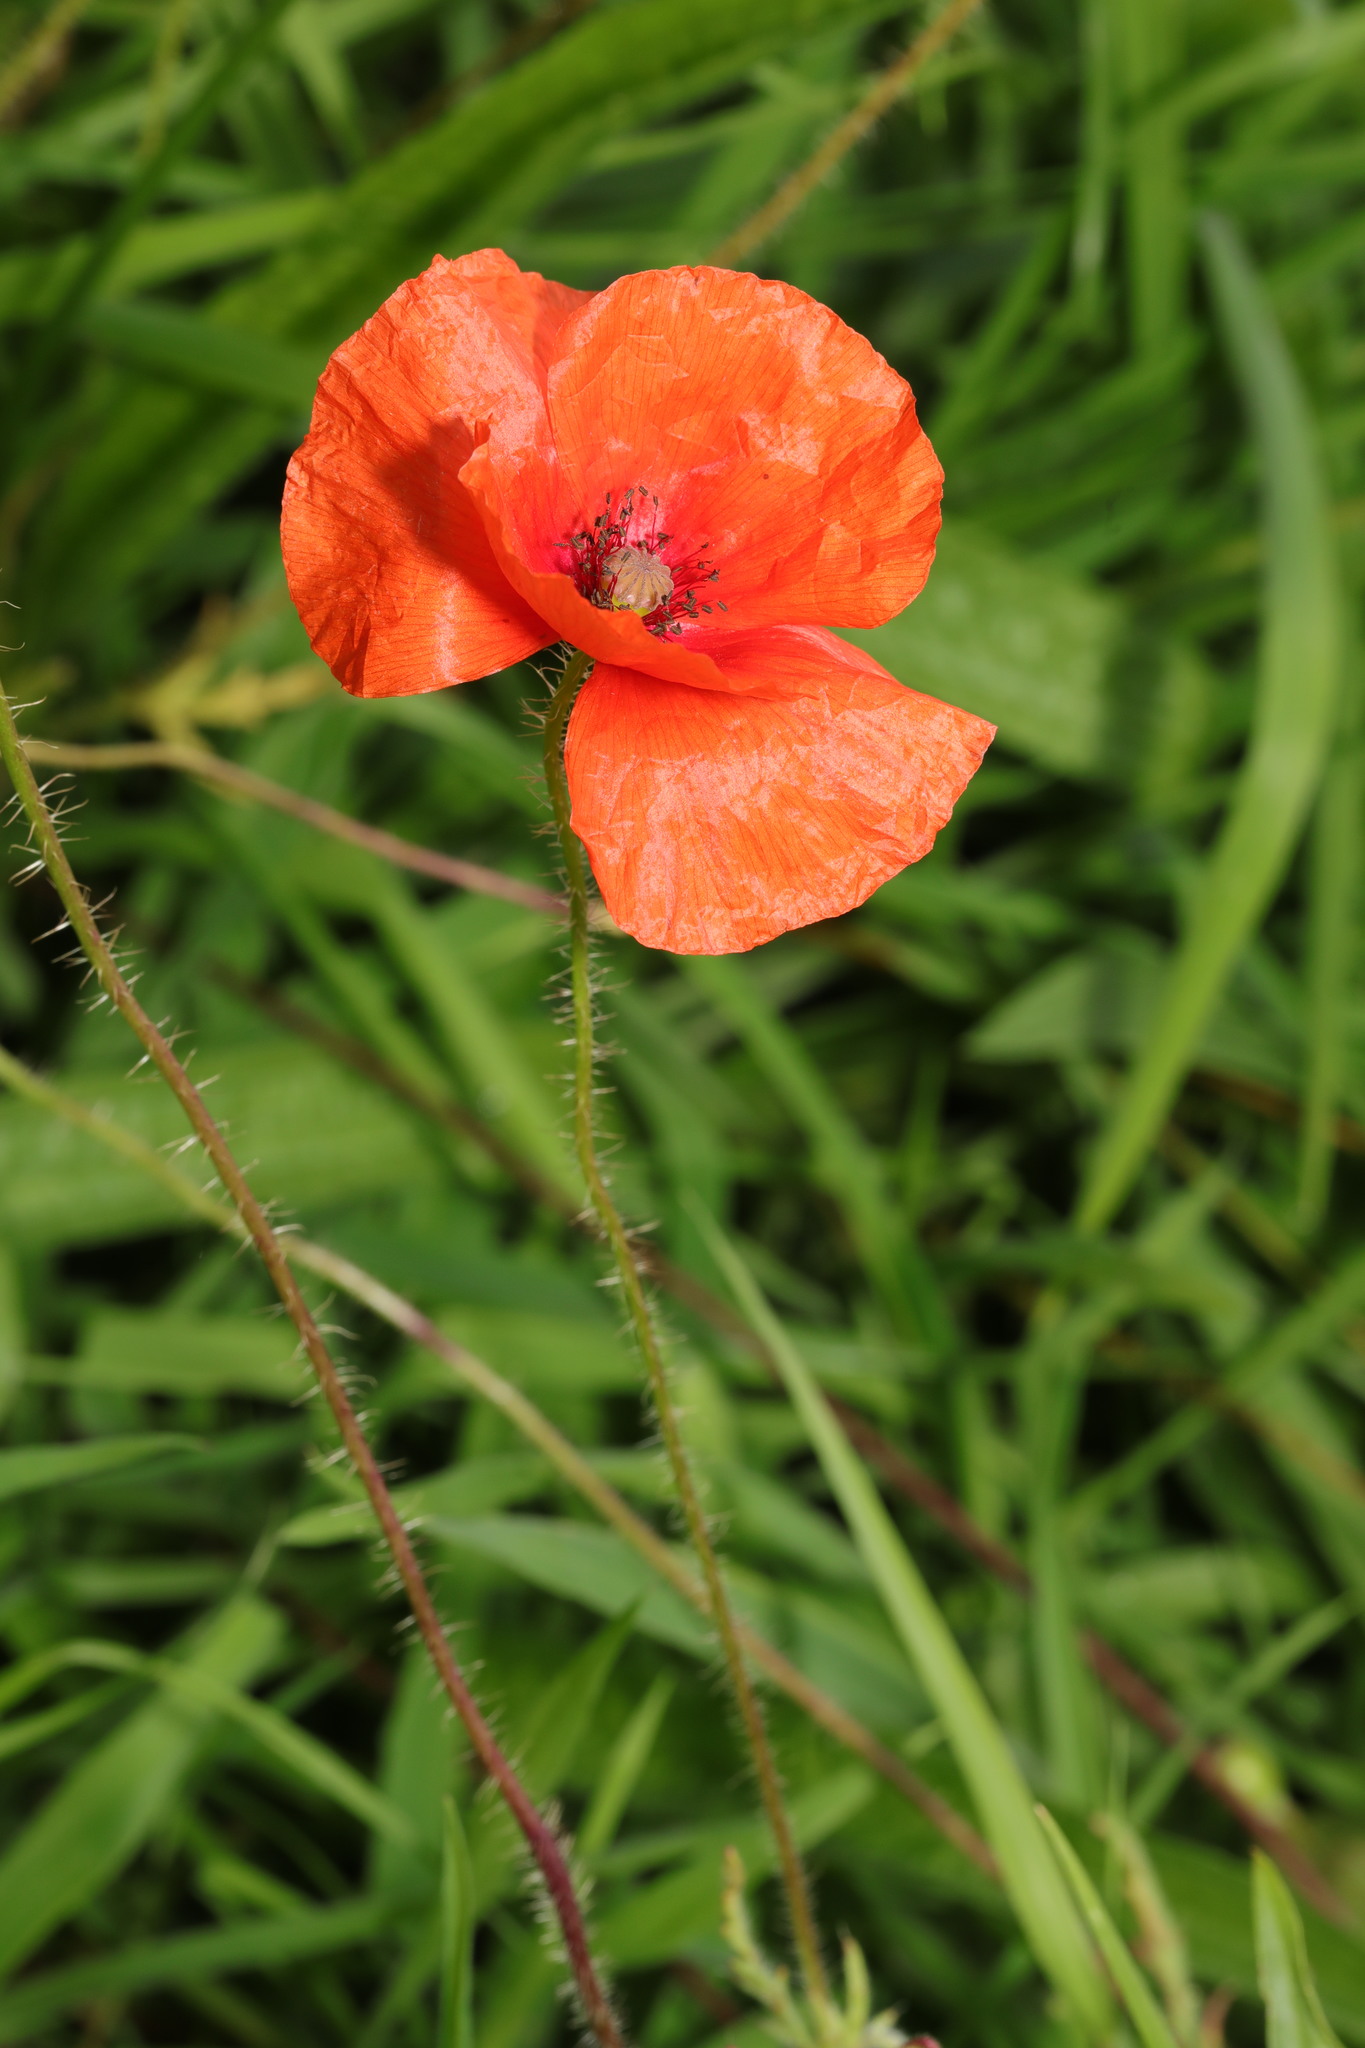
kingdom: Plantae
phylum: Tracheophyta
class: Magnoliopsida
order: Ranunculales
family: Papaveraceae
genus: Papaver
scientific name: Papaver rhoeas
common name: Corn poppy
